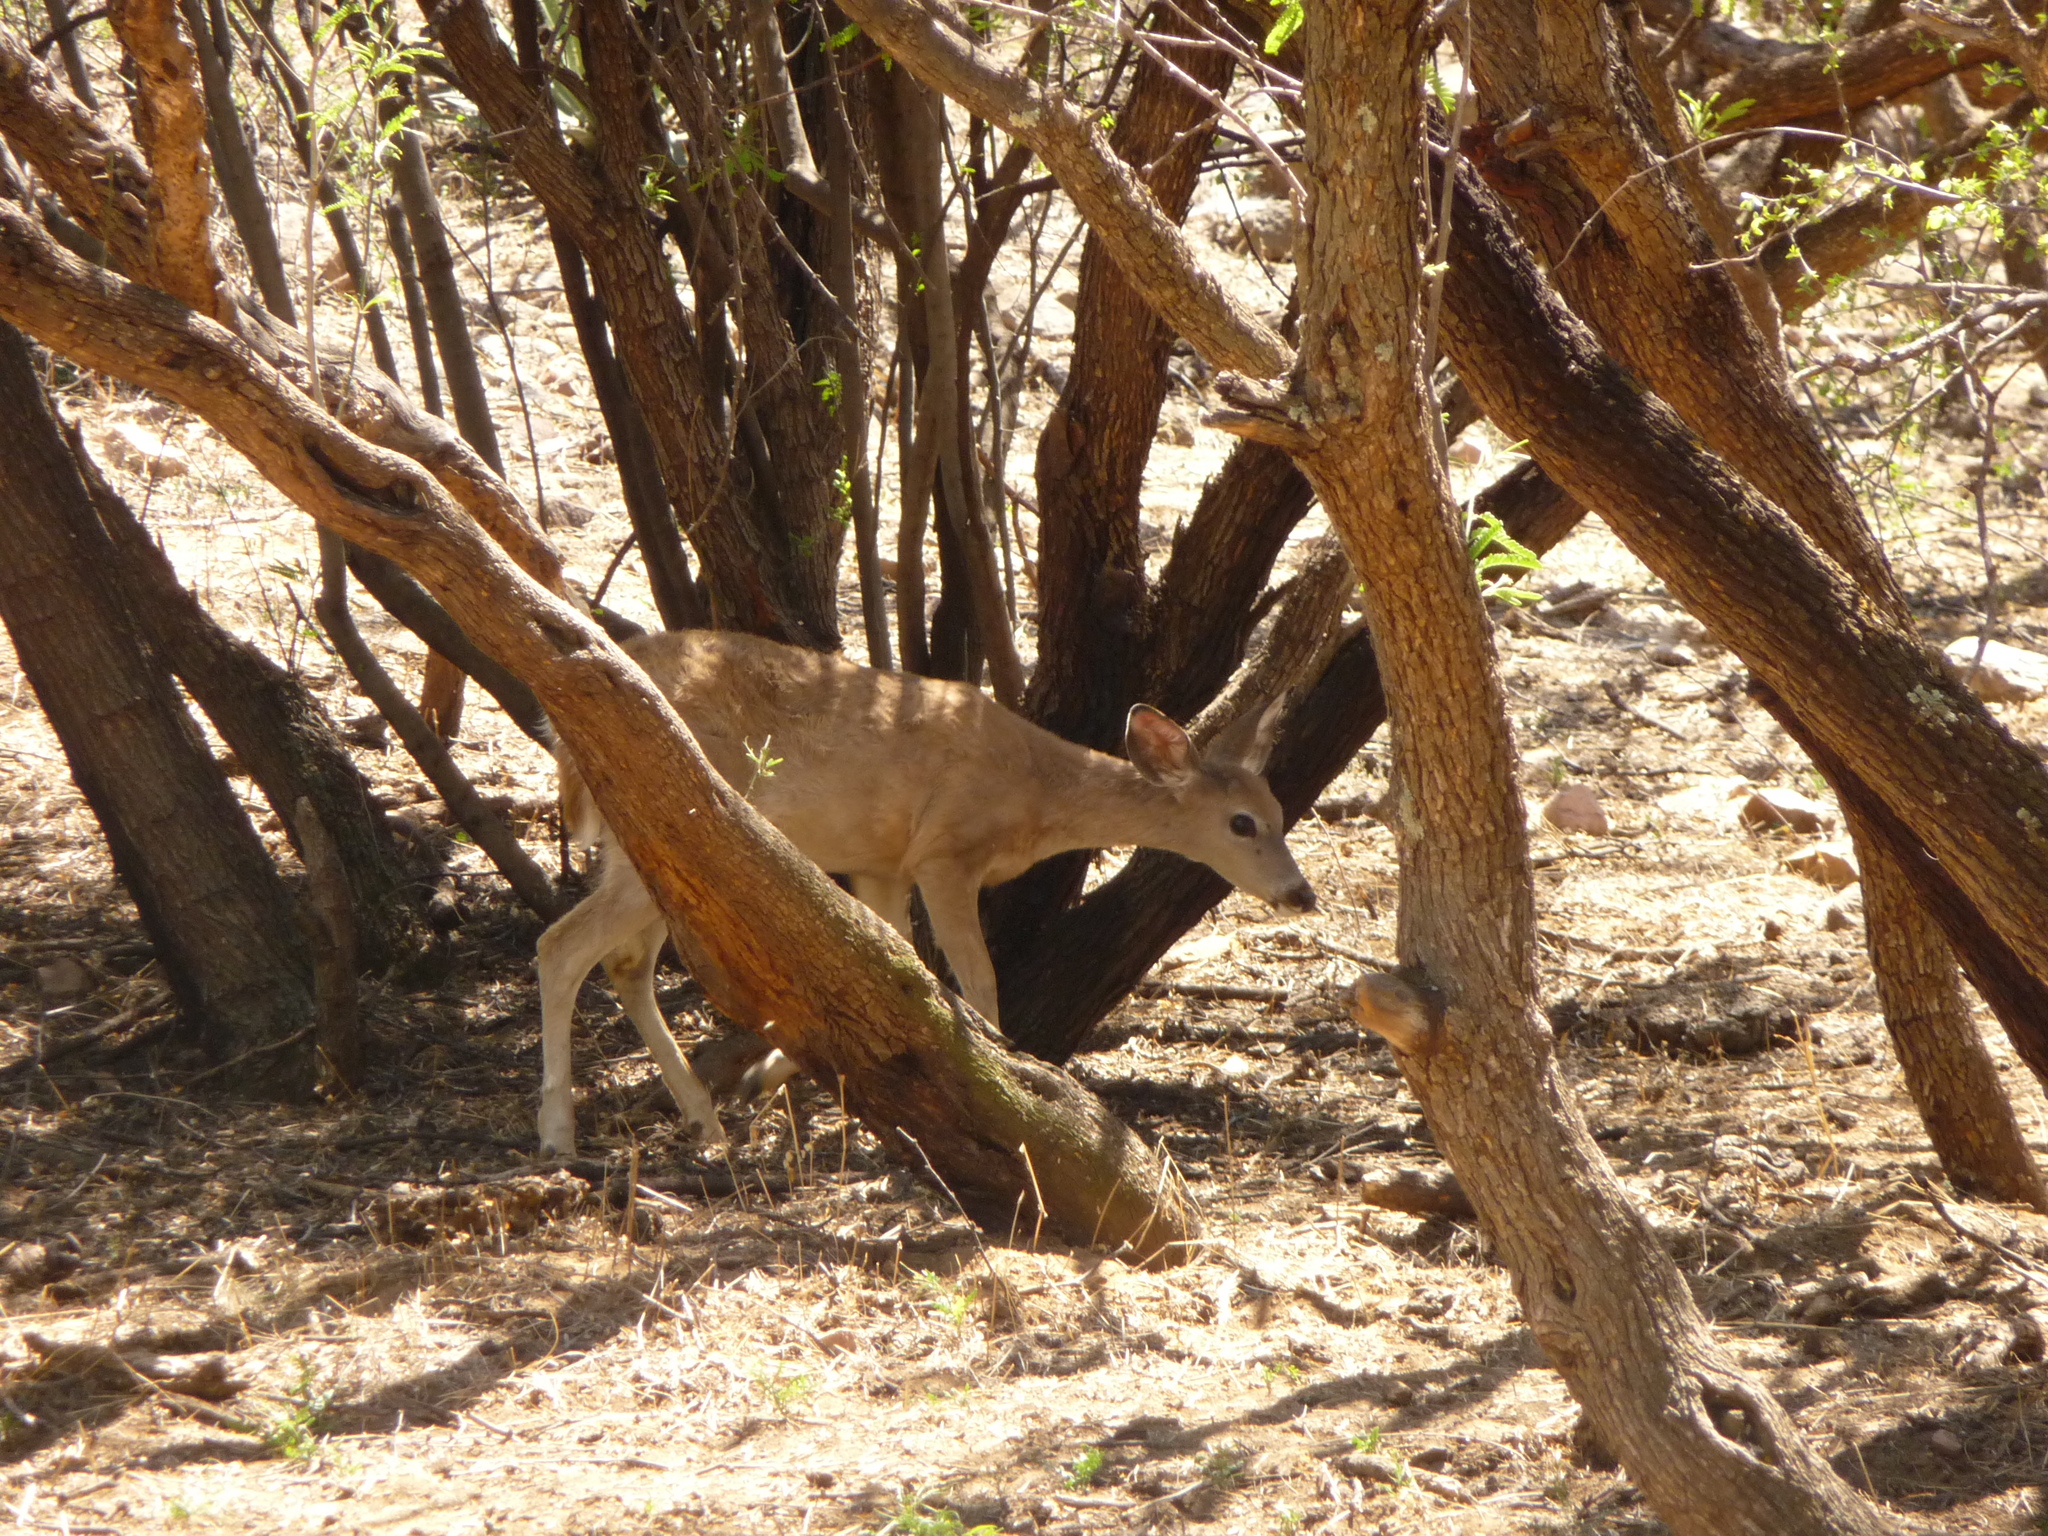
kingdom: Animalia
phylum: Chordata
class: Mammalia
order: Artiodactyla
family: Cervidae
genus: Odocoileus
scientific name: Odocoileus virginianus
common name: White-tailed deer
